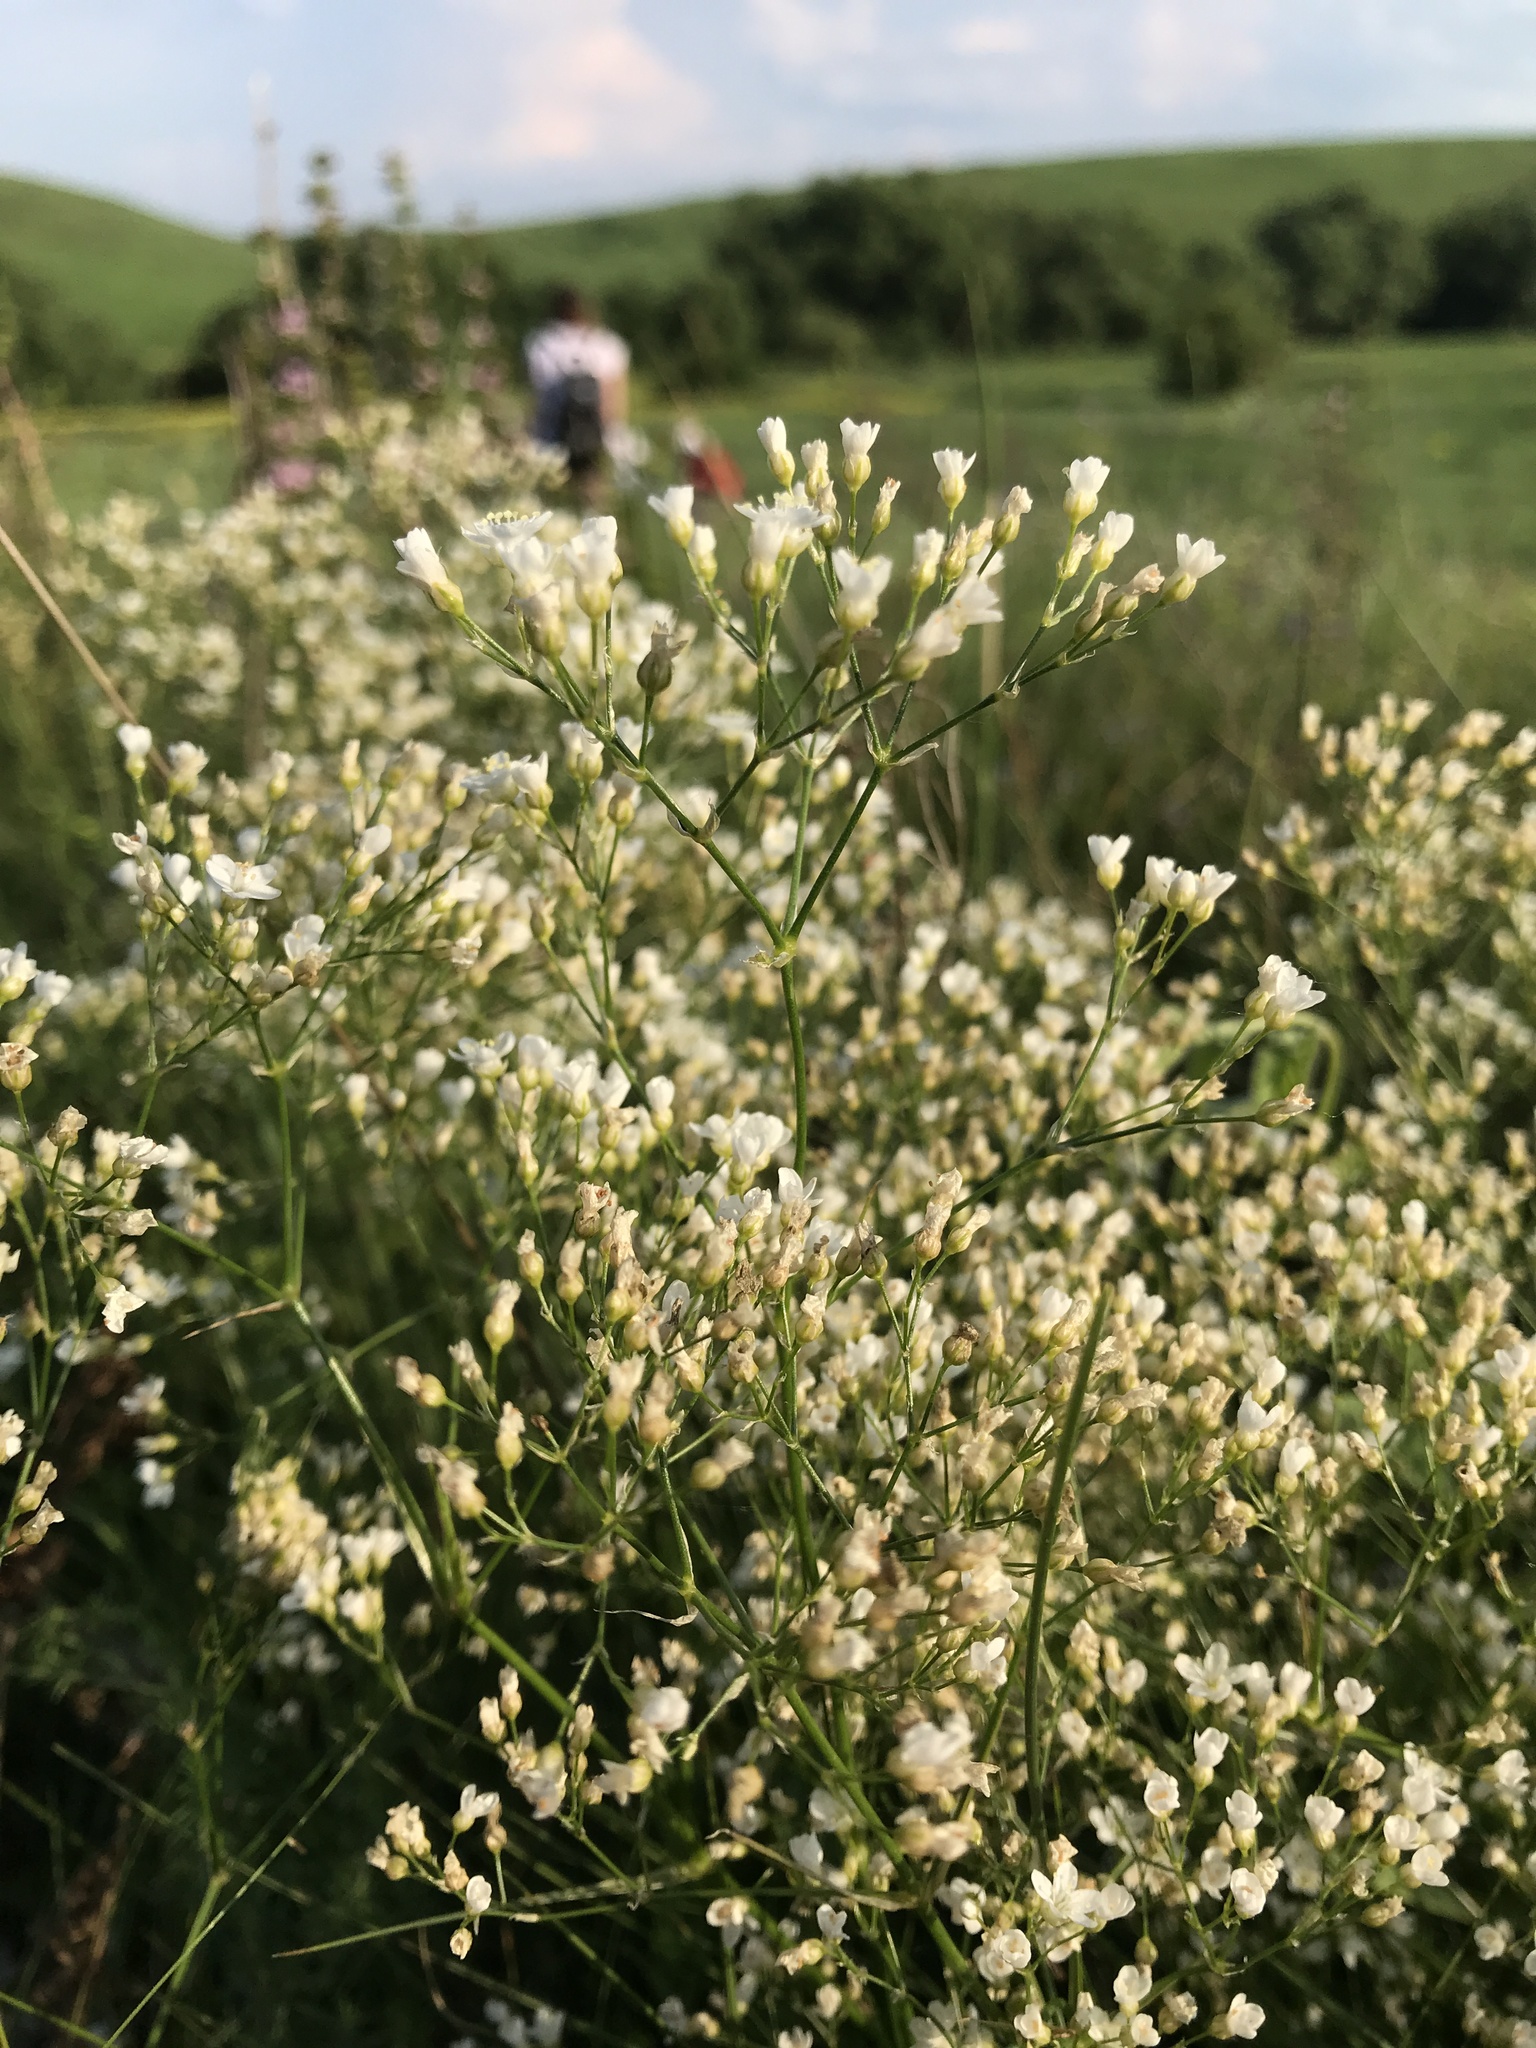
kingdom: Plantae
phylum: Tracheophyta
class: Magnoliopsida
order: Caryophyllales
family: Caryophyllaceae
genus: Eremogone
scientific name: Eremogone longifolia
